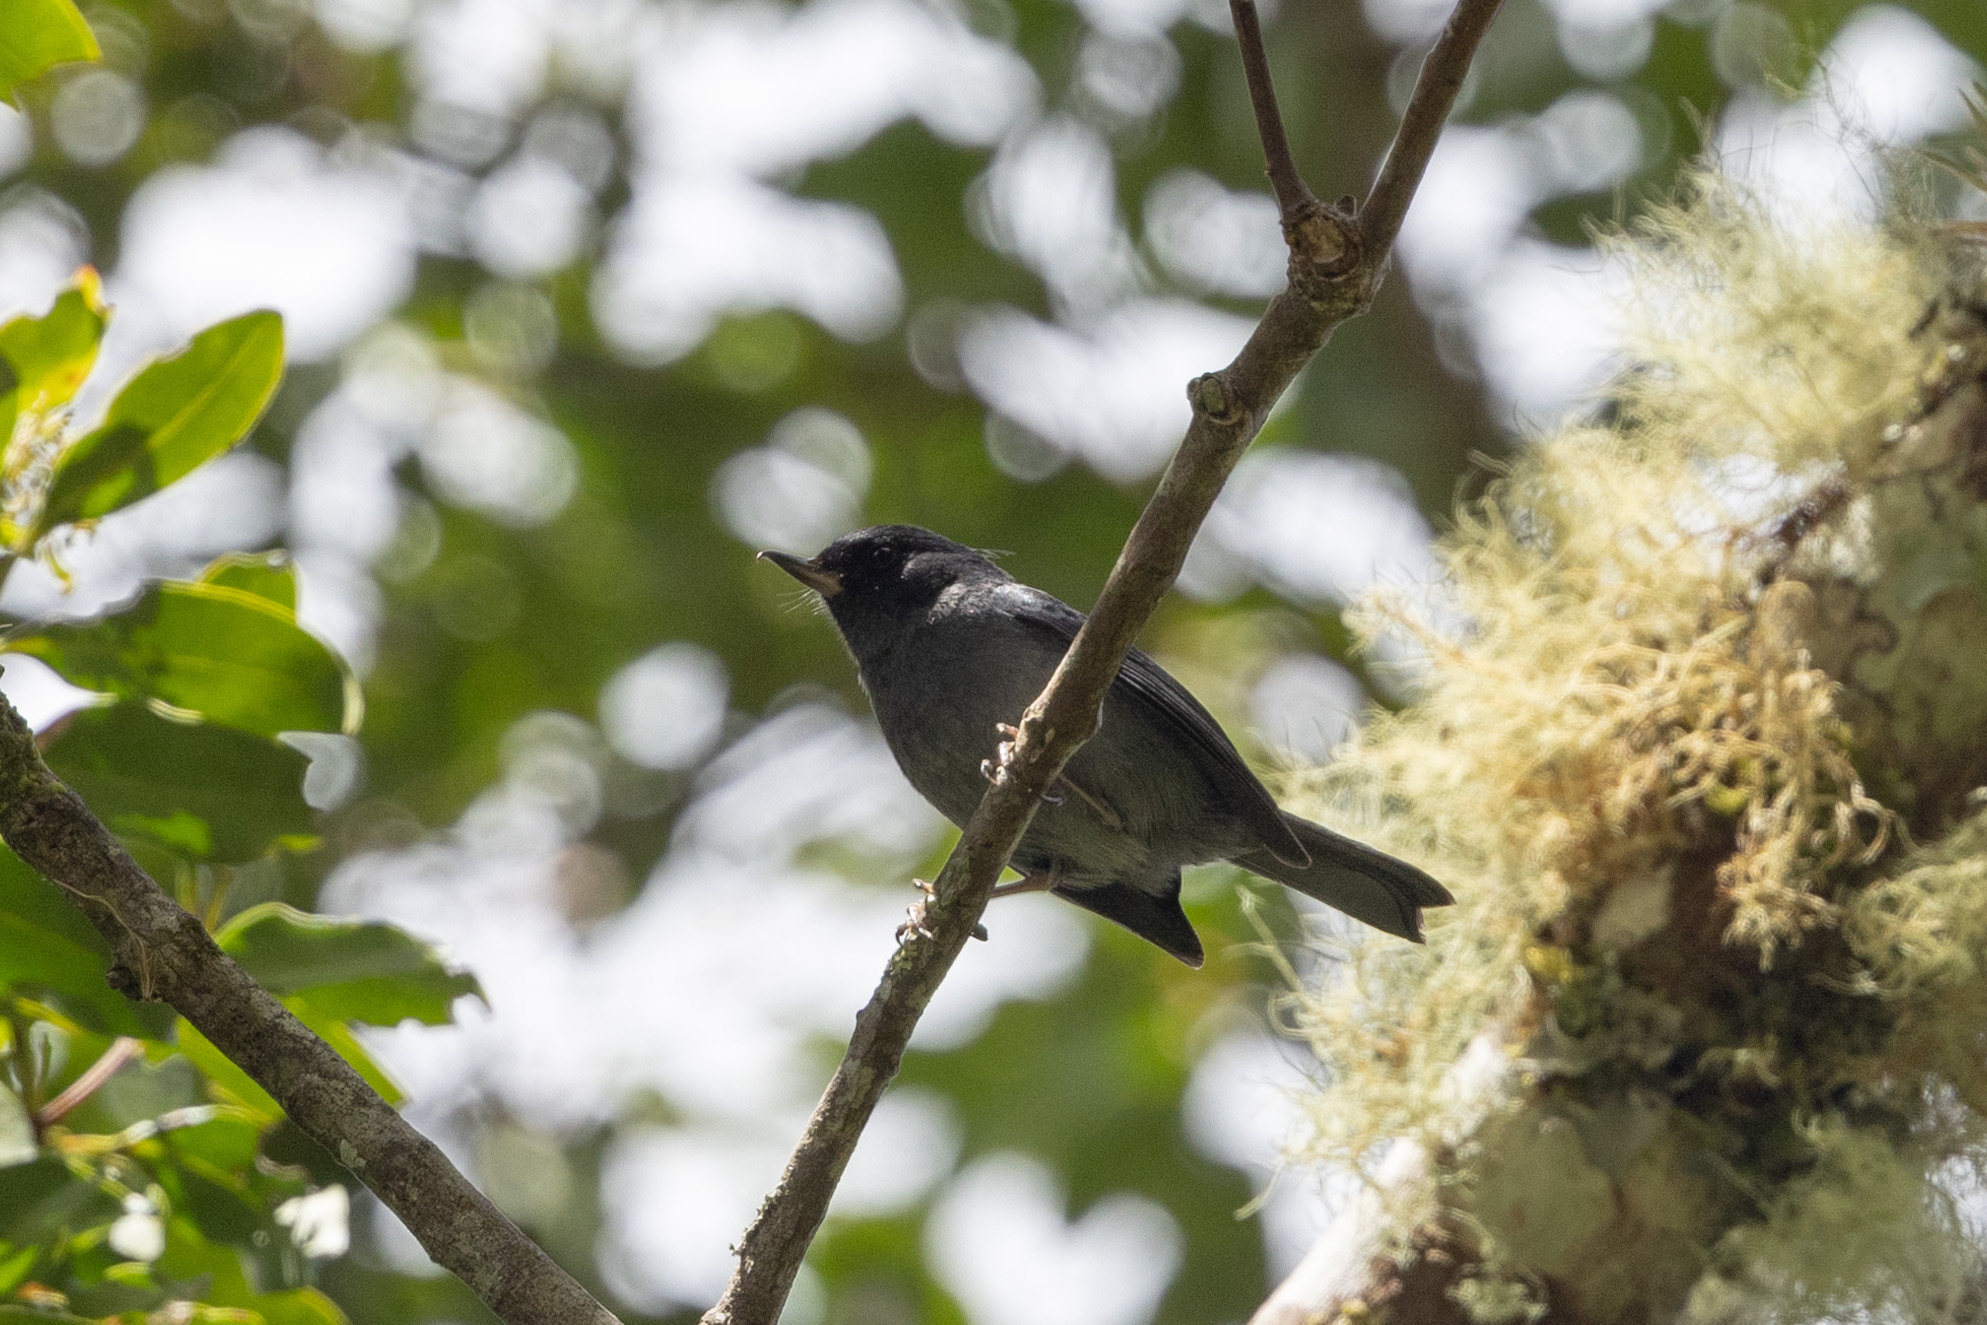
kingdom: Animalia
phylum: Chordata
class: Aves
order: Passeriformes
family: Thraupidae
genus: Diglossa
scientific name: Diglossa plumbea
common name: Slaty flowerpiercer
